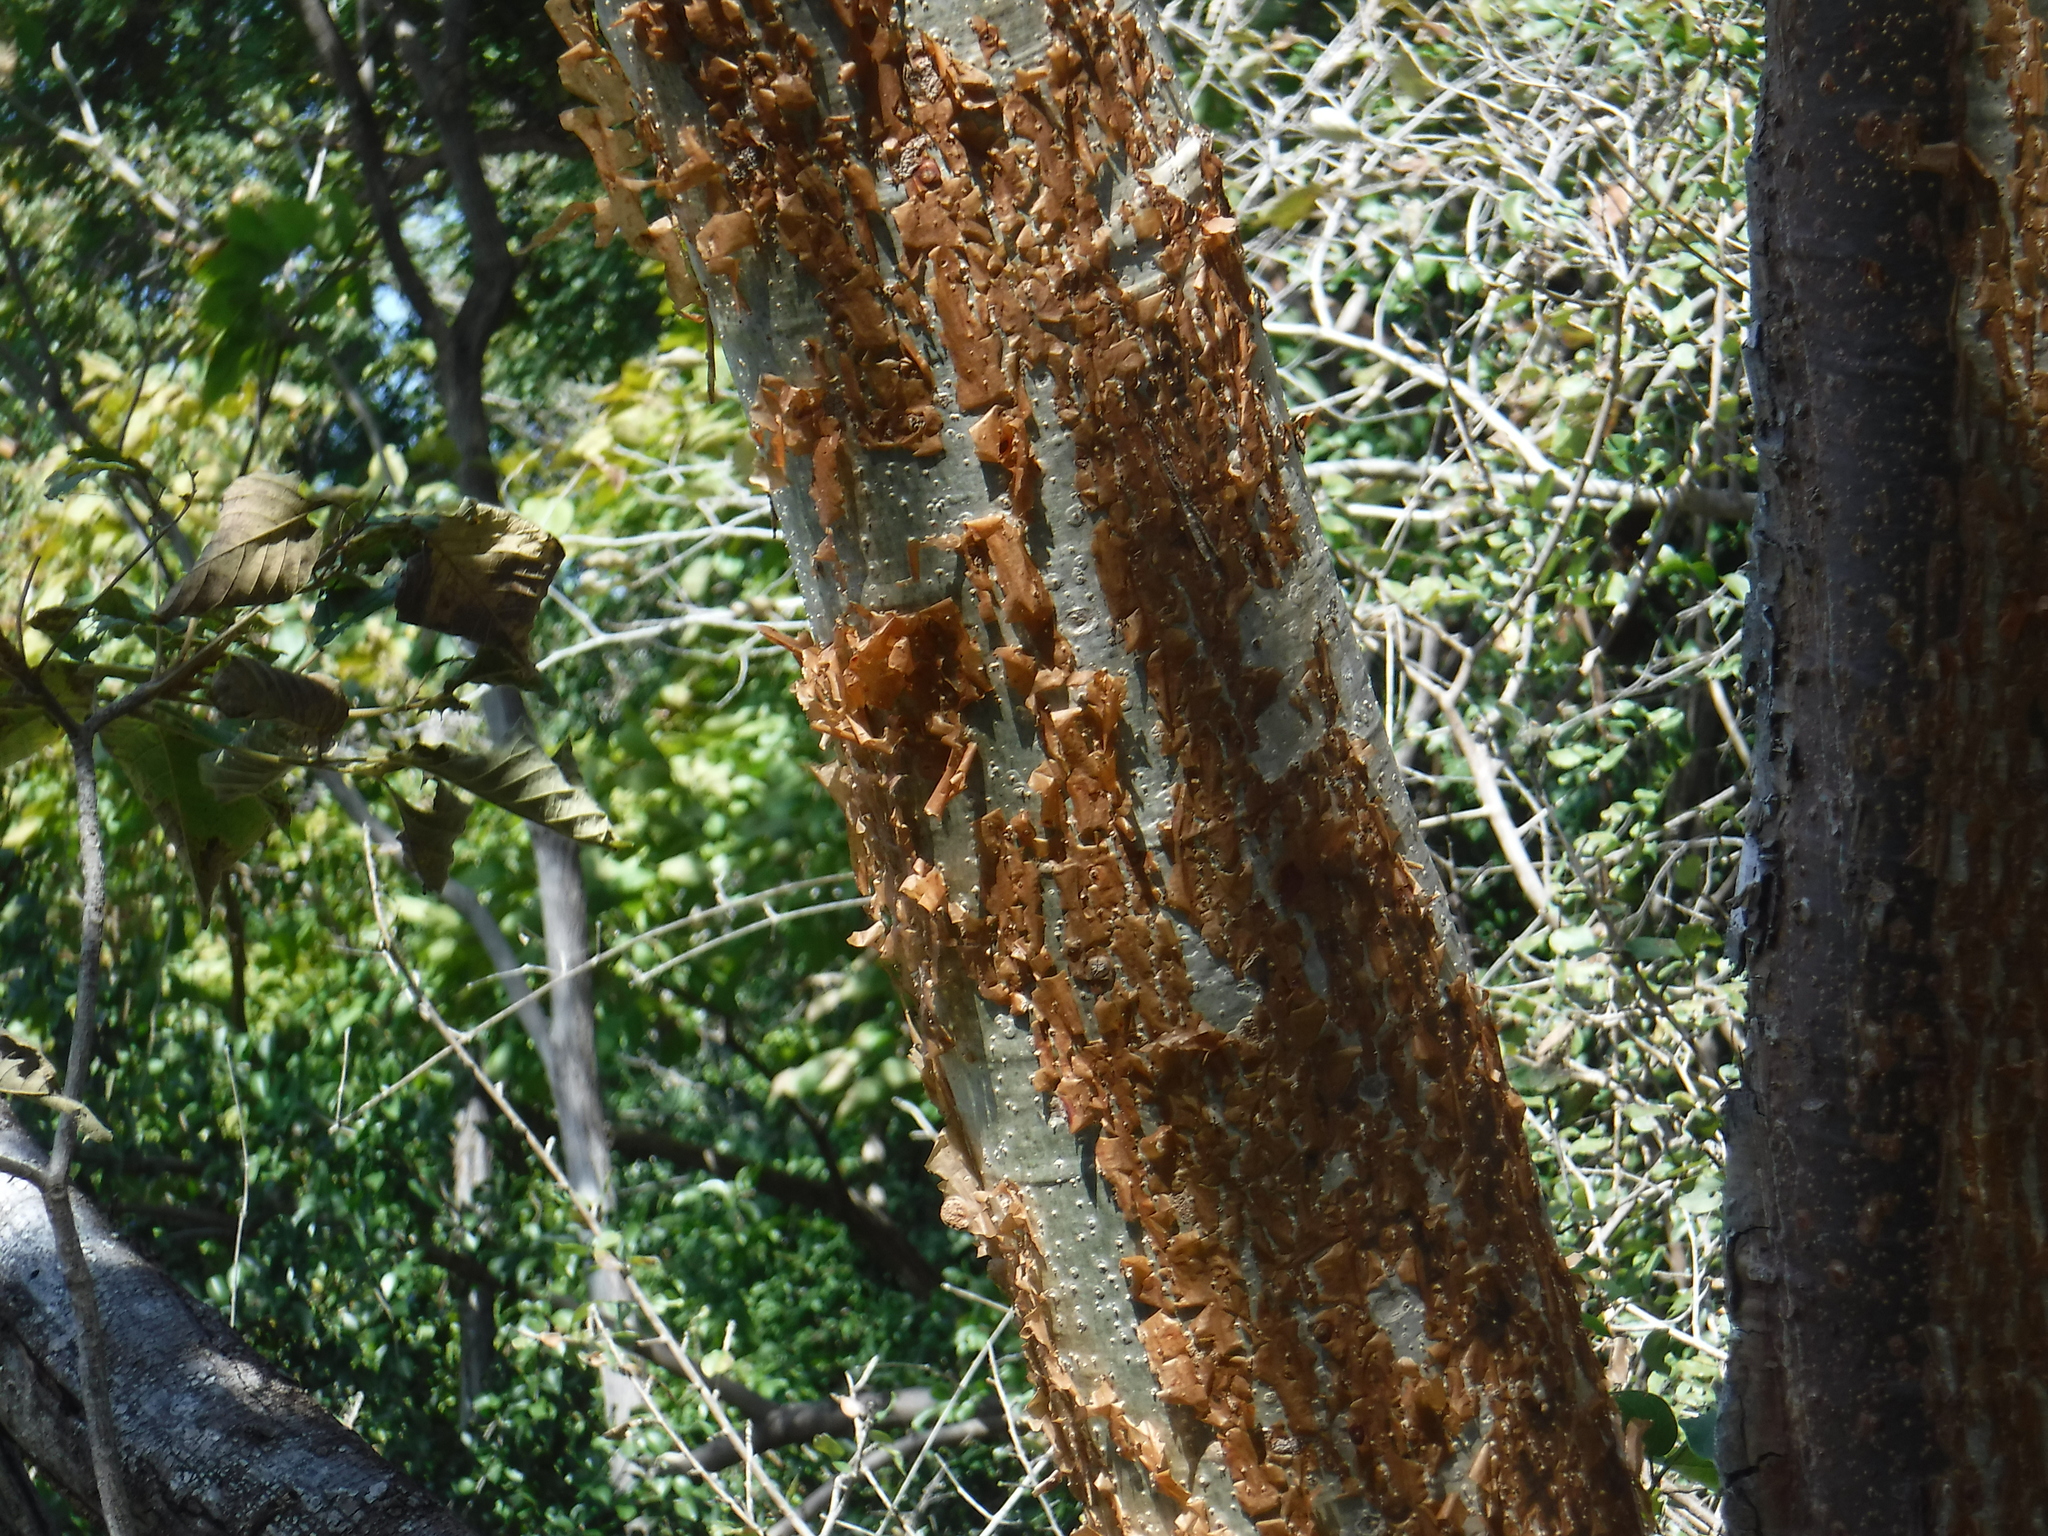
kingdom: Plantae
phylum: Tracheophyta
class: Magnoliopsida
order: Sapindales
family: Burseraceae
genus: Bursera
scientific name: Bursera simaruba
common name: Turpentine tree
